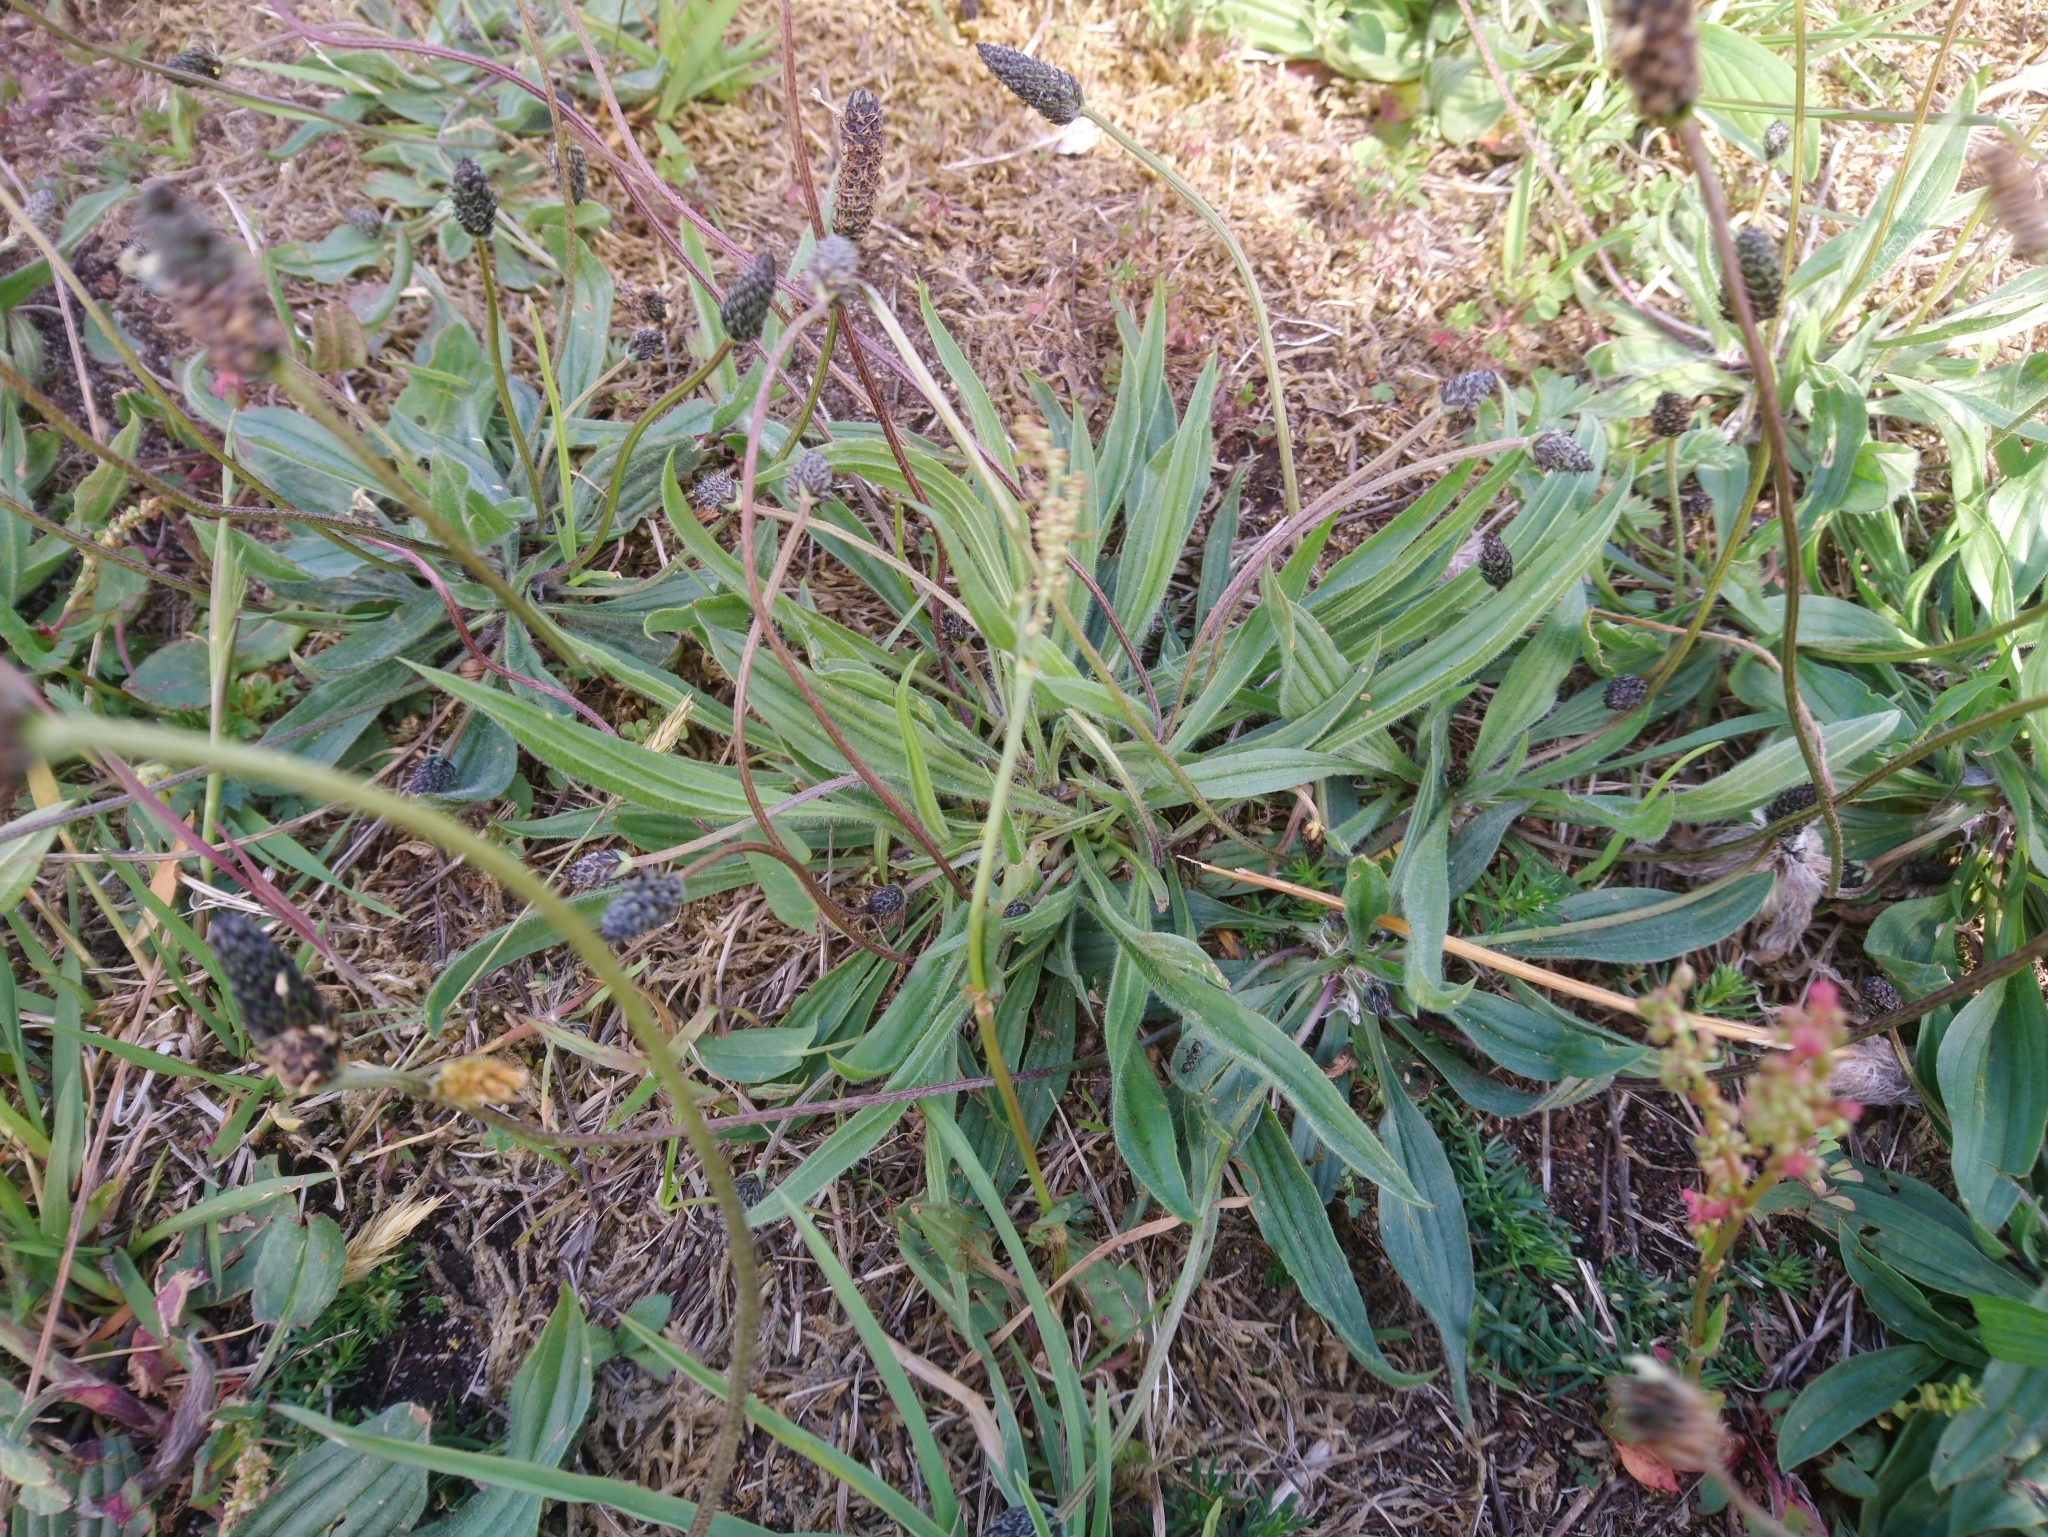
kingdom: Plantae
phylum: Tracheophyta
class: Magnoliopsida
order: Lamiales
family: Plantaginaceae
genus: Plantago
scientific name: Plantago lanceolata
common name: Ribwort plantain
